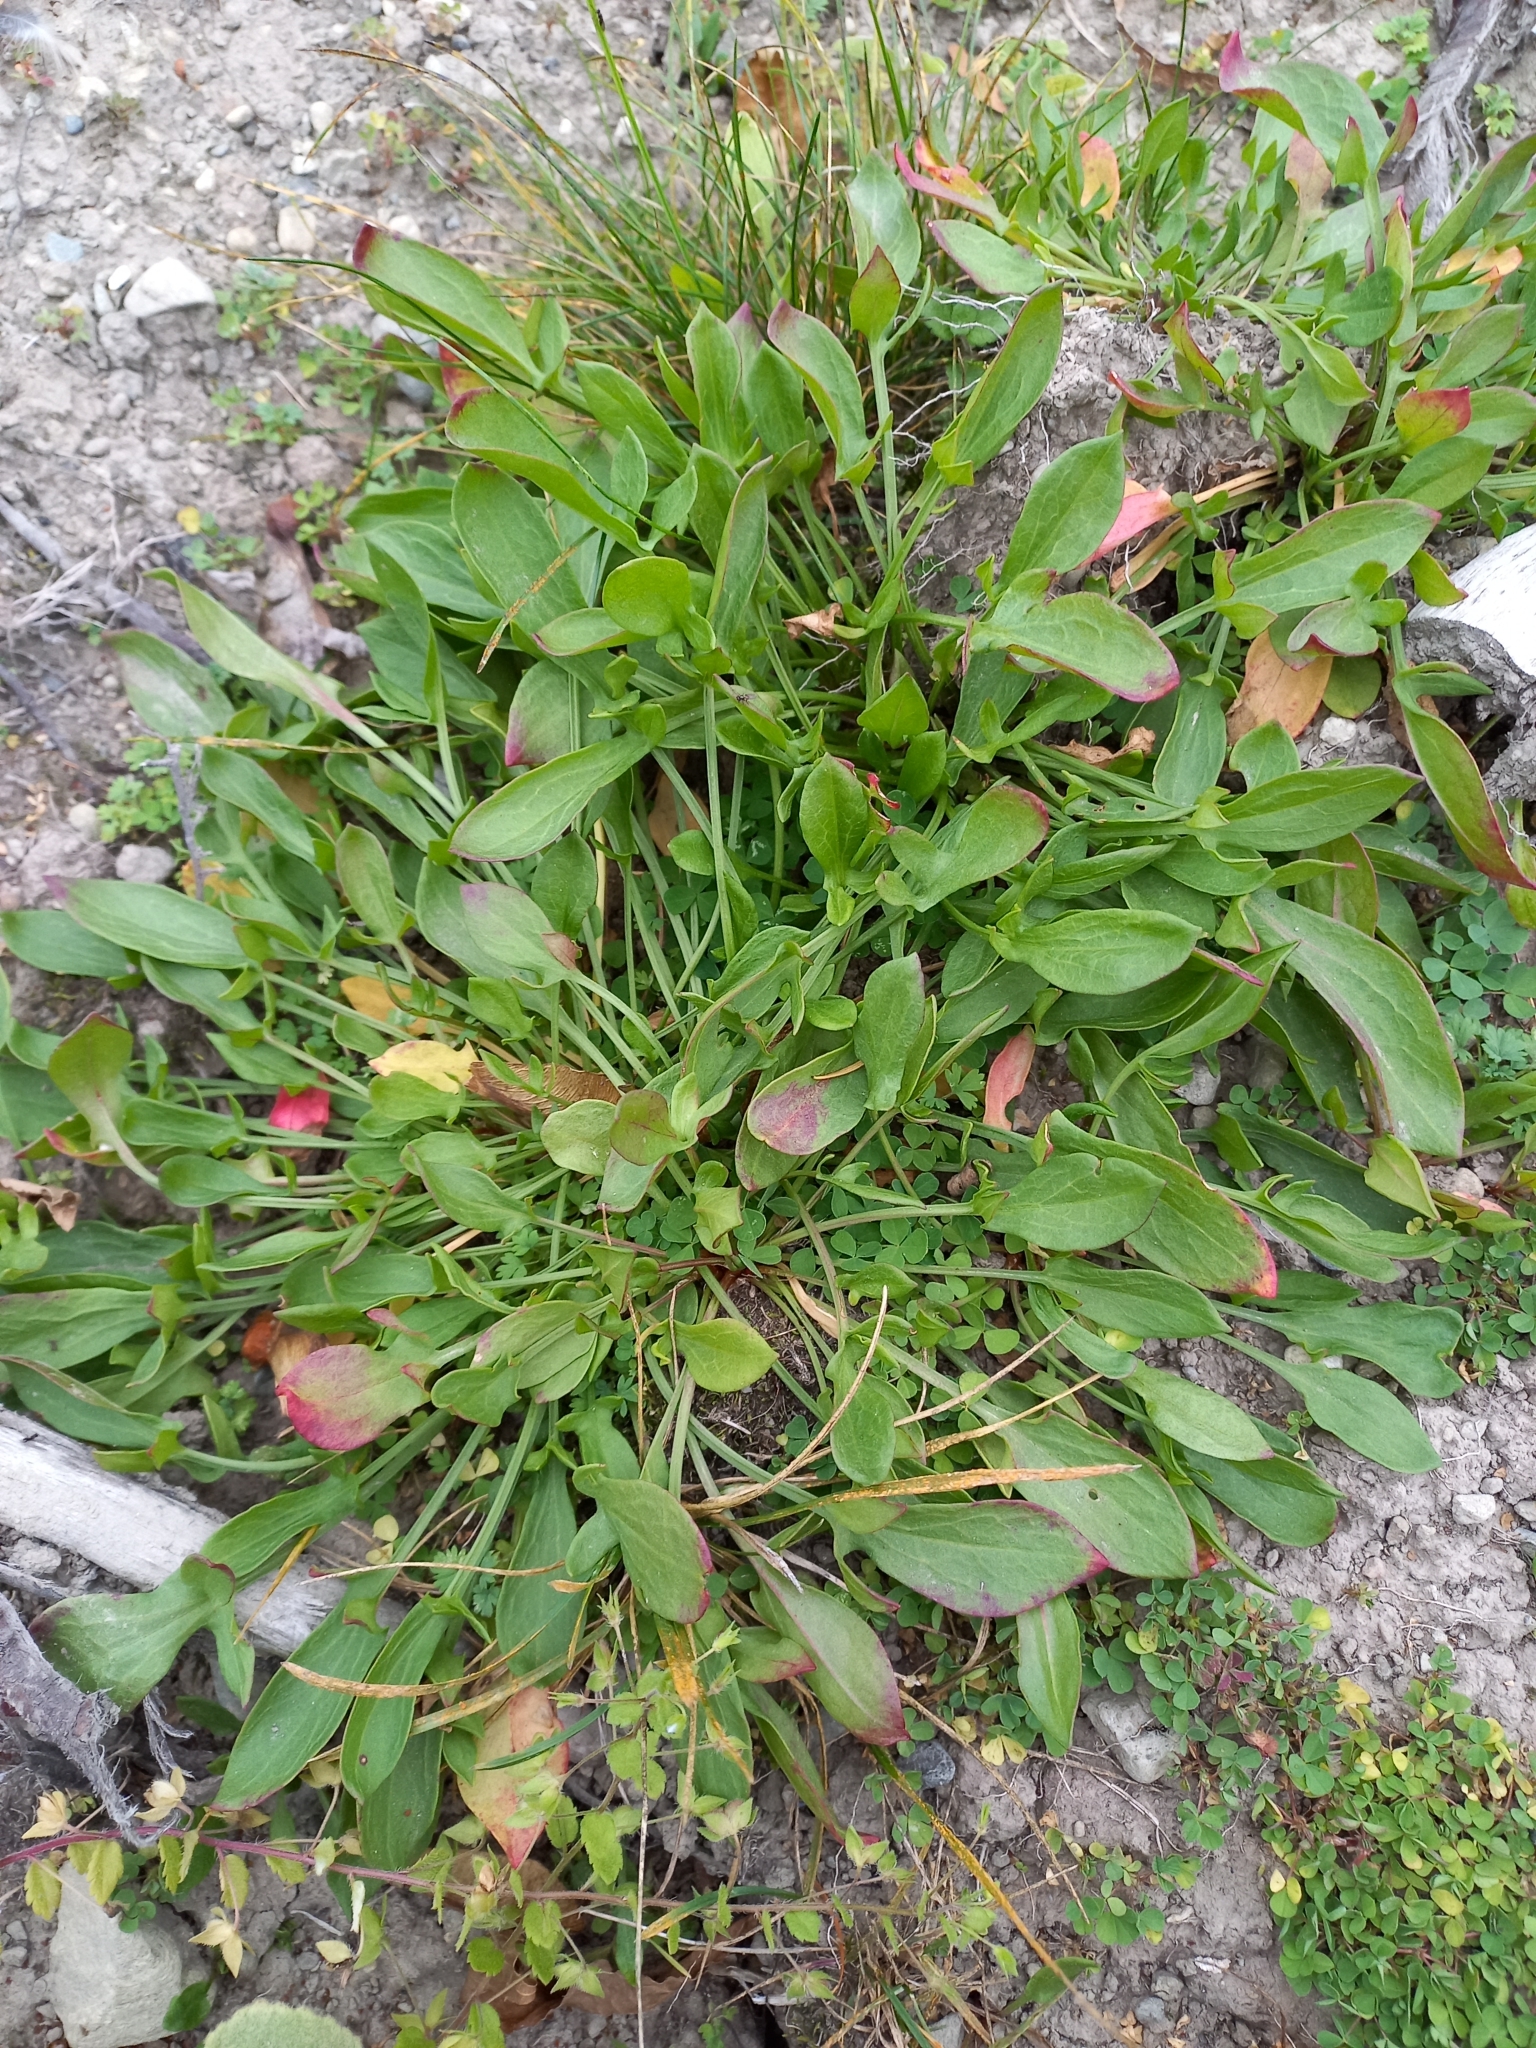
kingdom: Plantae
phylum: Tracheophyta
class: Magnoliopsida
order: Caryophyllales
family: Polygonaceae
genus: Rumex
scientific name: Rumex acetosella
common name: Common sheep sorrel
